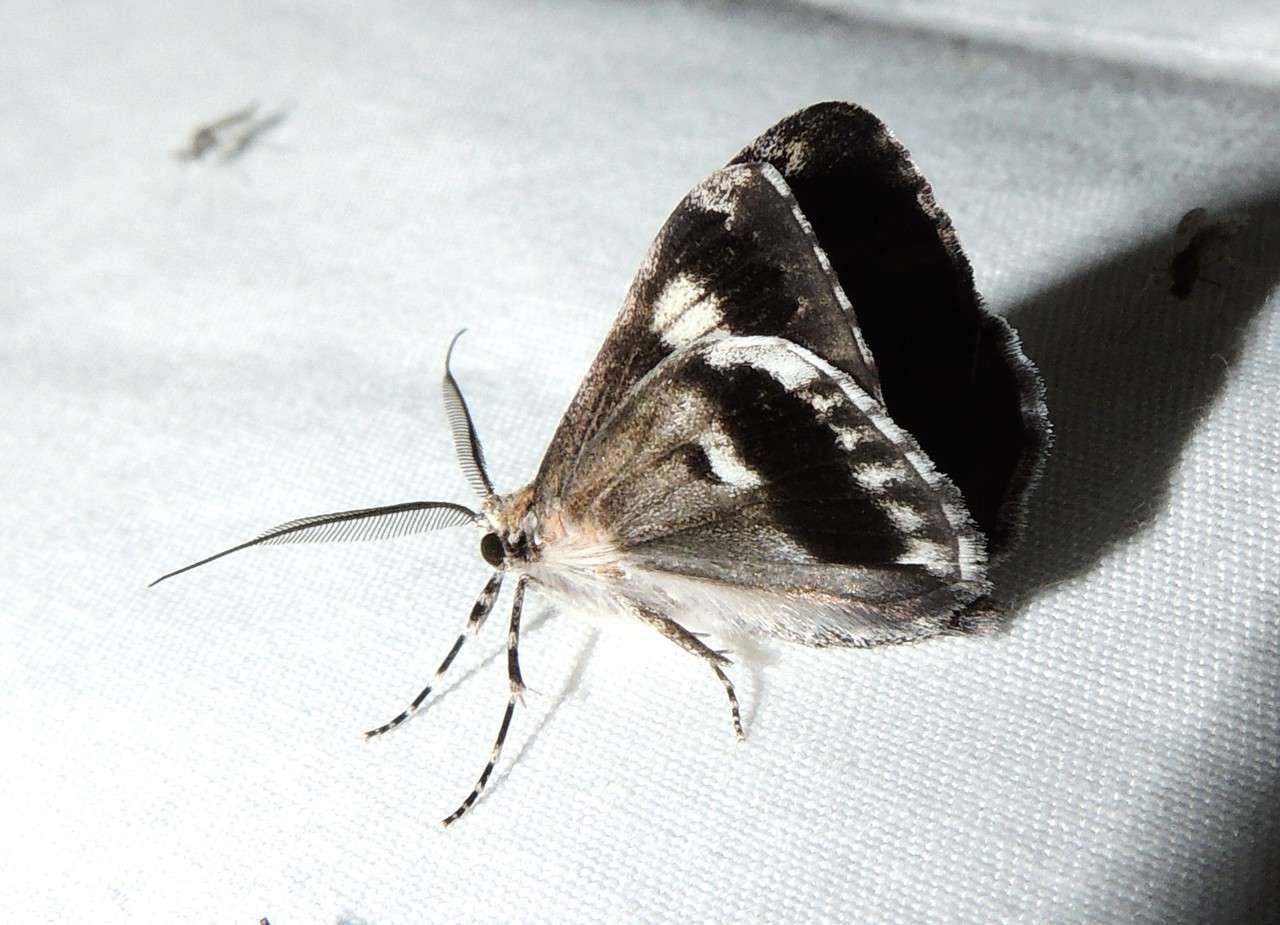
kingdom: Animalia
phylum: Arthropoda
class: Insecta
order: Lepidoptera
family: Geometridae
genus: Rhuma
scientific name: Rhuma
